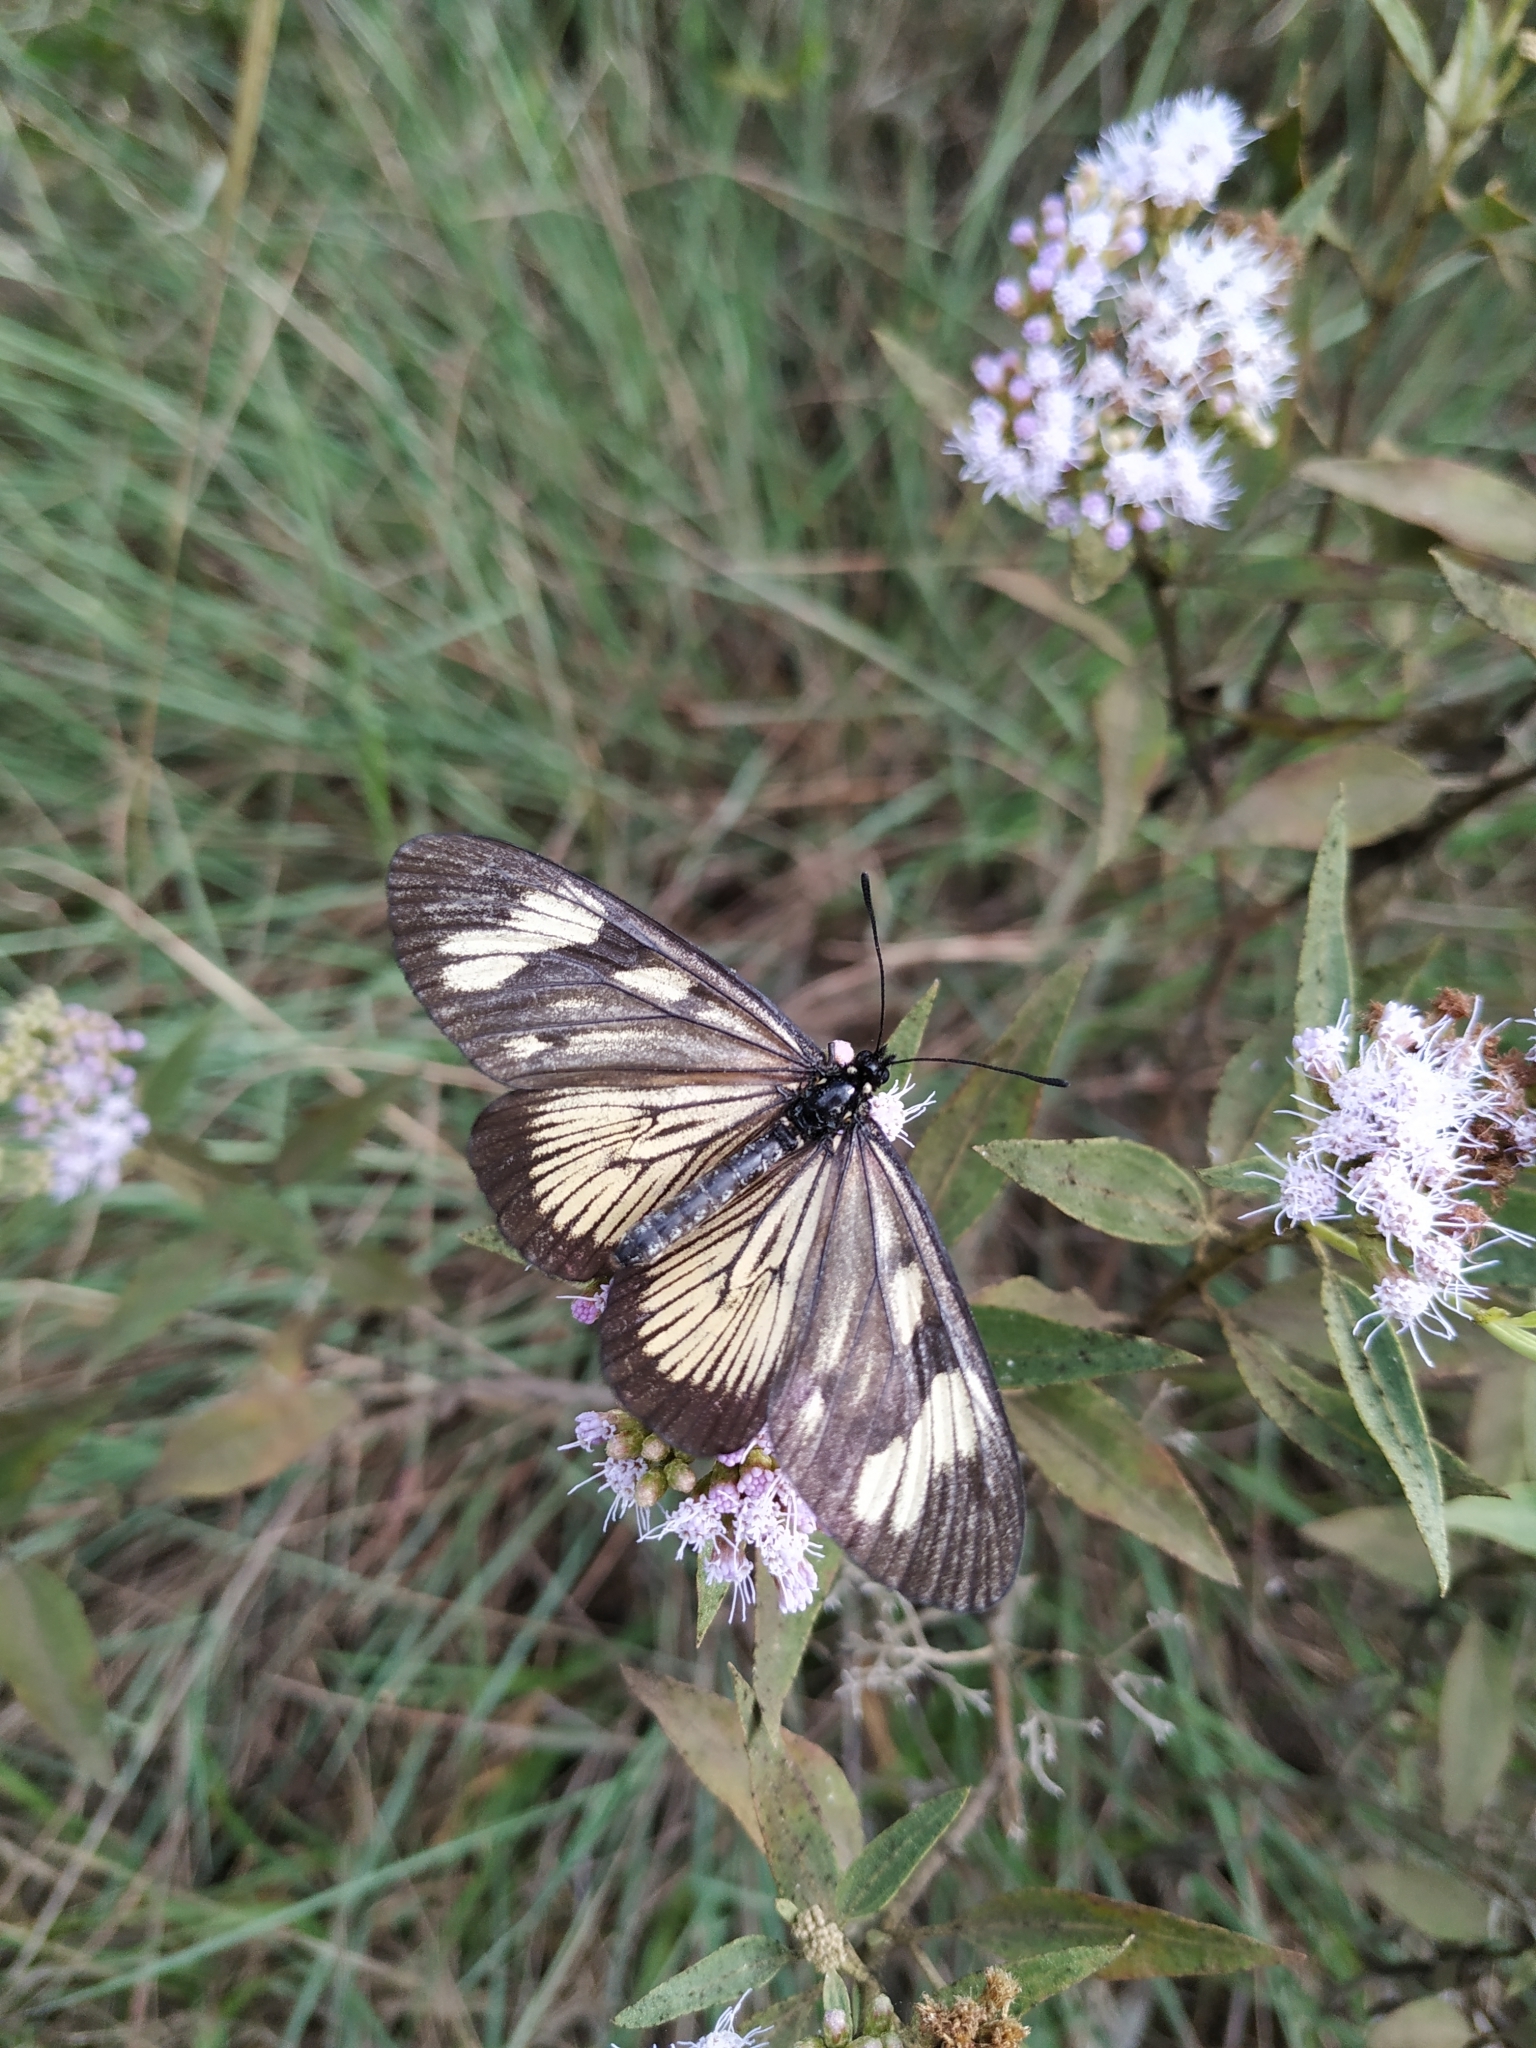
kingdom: Animalia
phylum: Arthropoda
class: Insecta
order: Lepidoptera
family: Nymphalidae
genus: Actinote
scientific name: Actinote anteas
